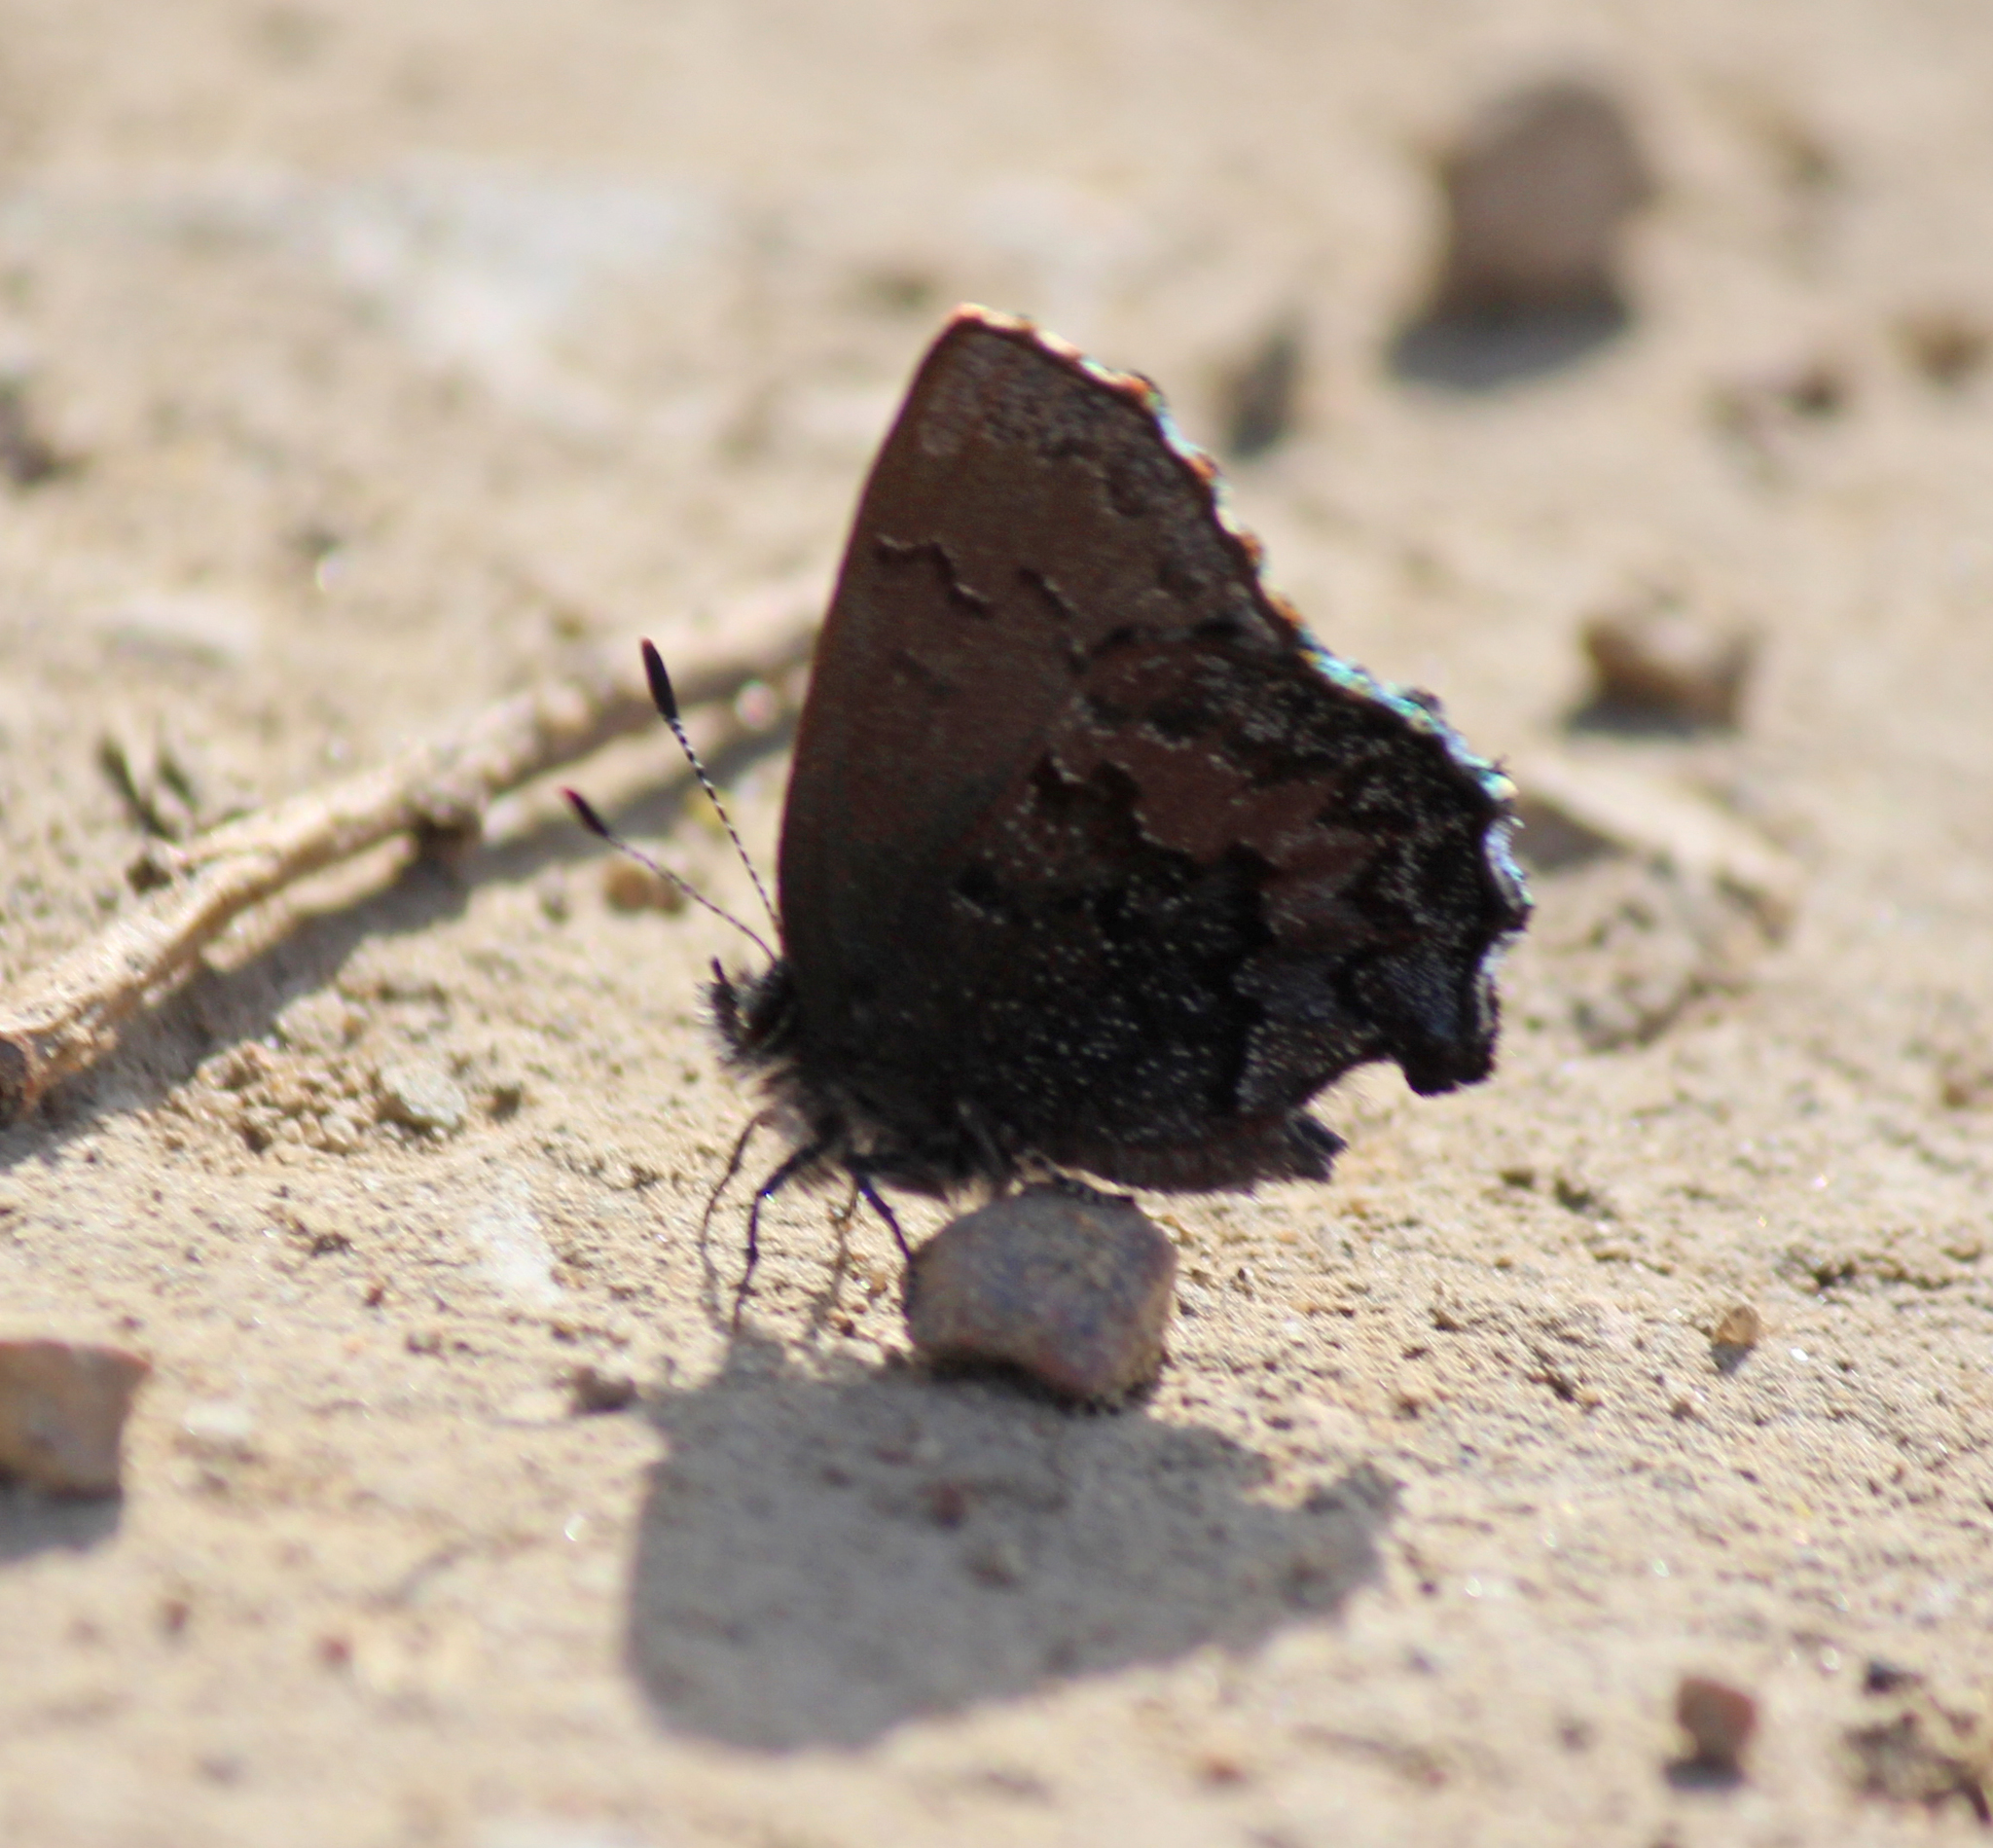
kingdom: Animalia
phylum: Arthropoda
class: Insecta
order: Lepidoptera
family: Lycaenidae
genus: Ginzia
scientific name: Ginzia Ahlbergia frivaldszkyi
